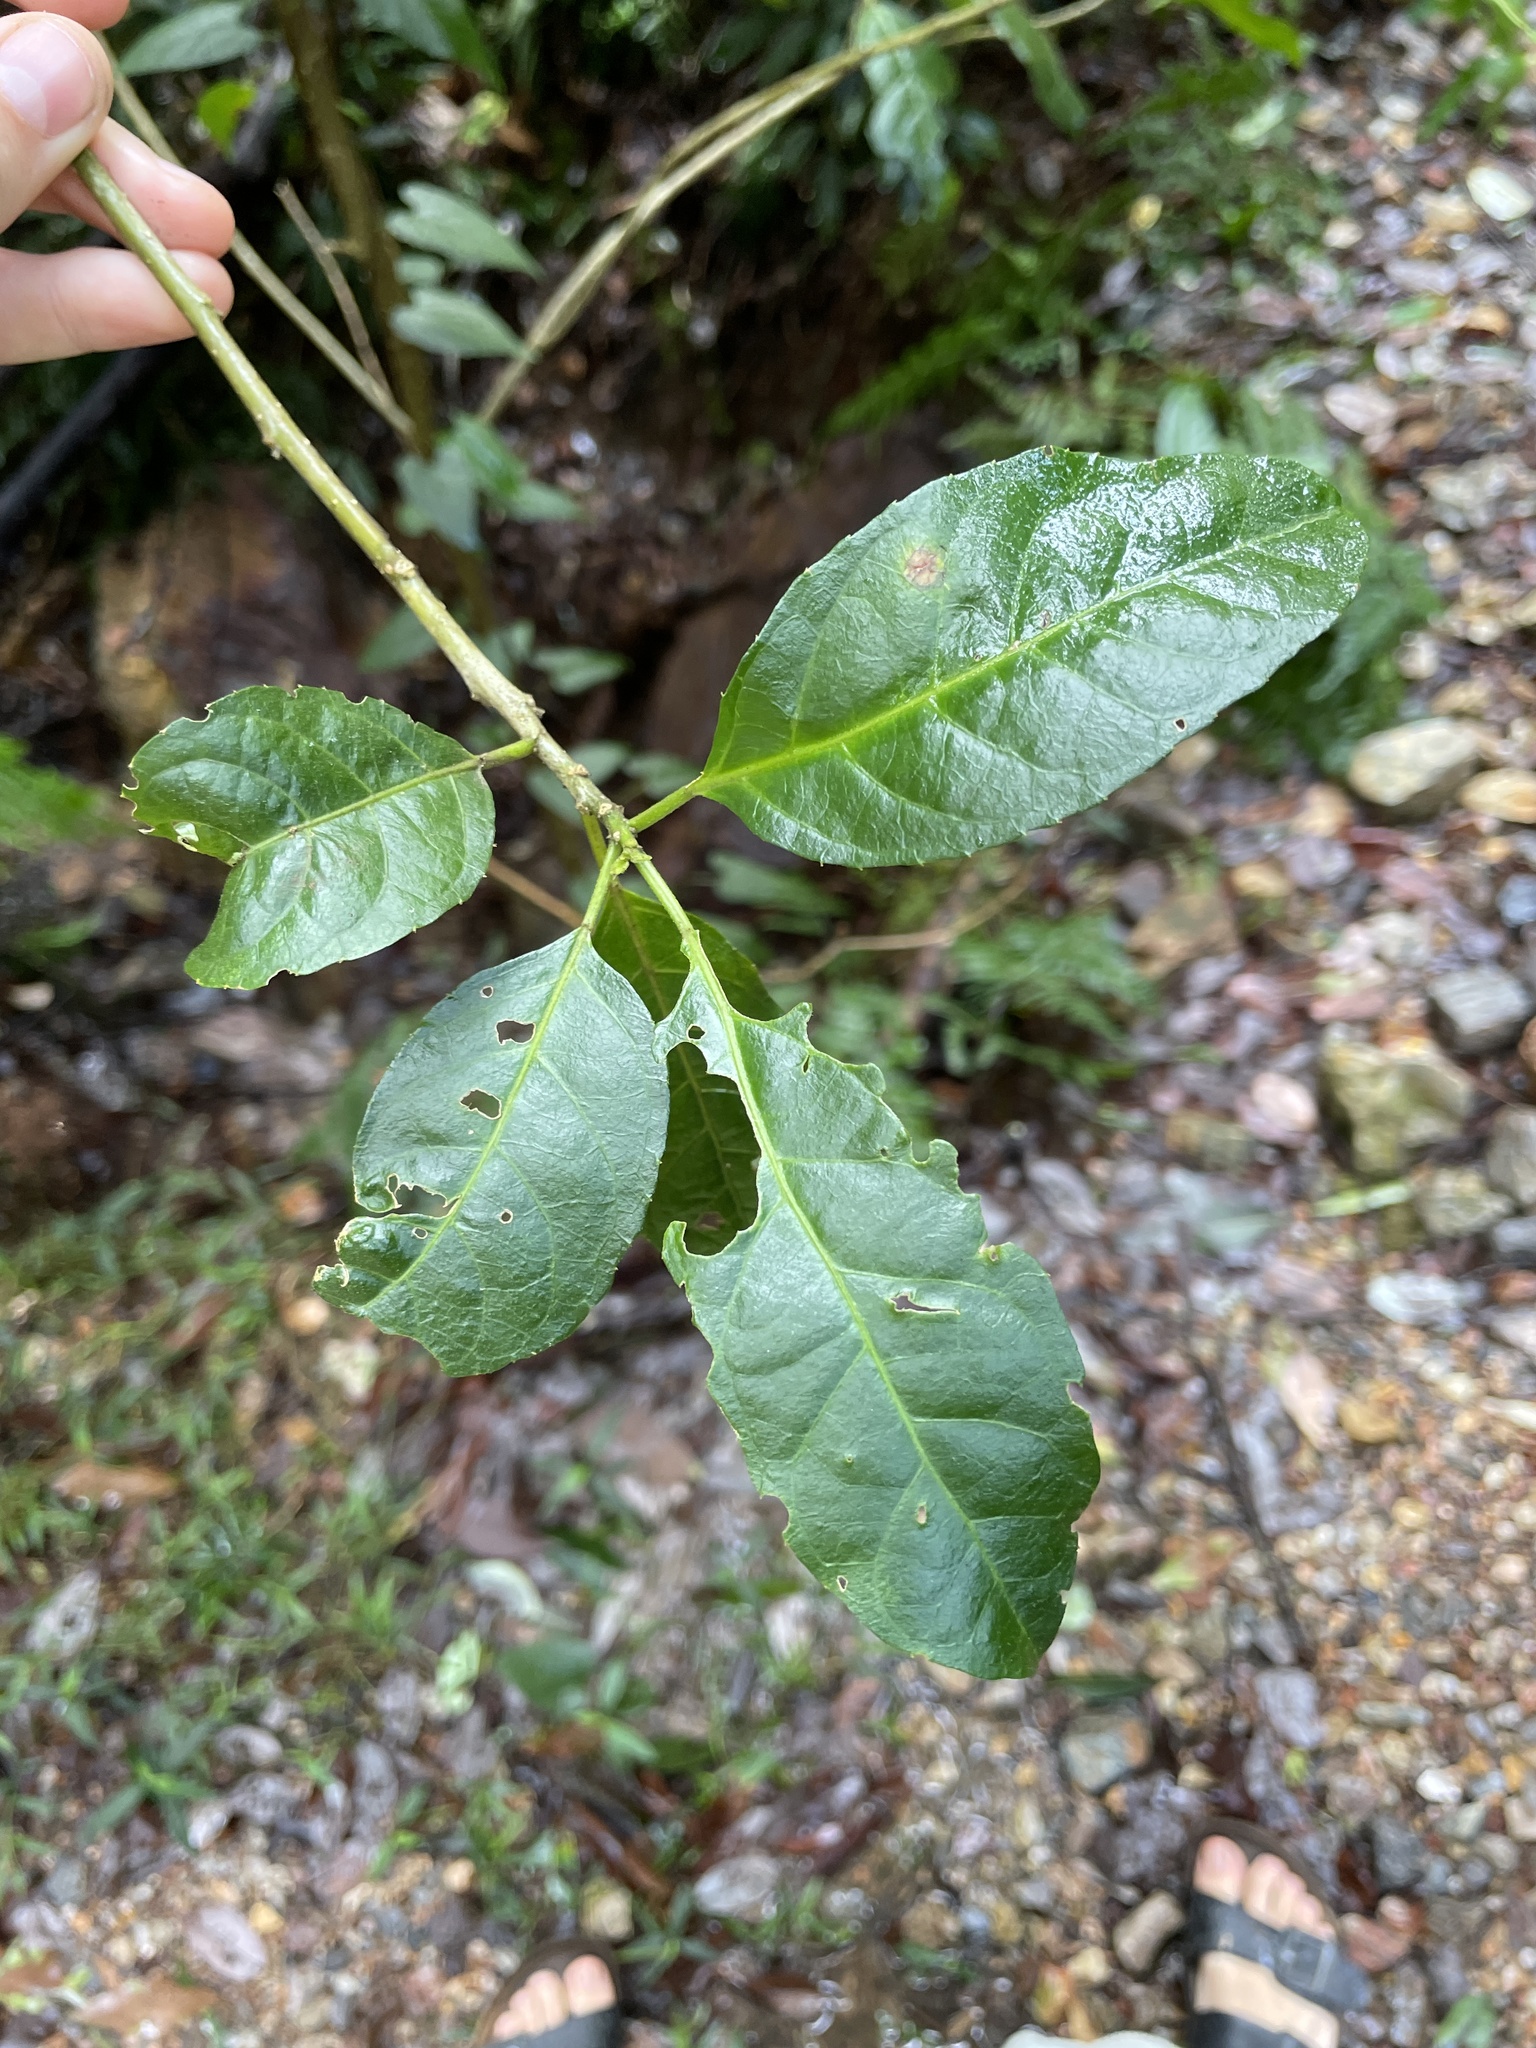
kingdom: Plantae
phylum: Tracheophyta
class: Magnoliopsida
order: Malpighiales
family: Euphorbiaceae
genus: Claoxylon
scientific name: Claoxylon australe
